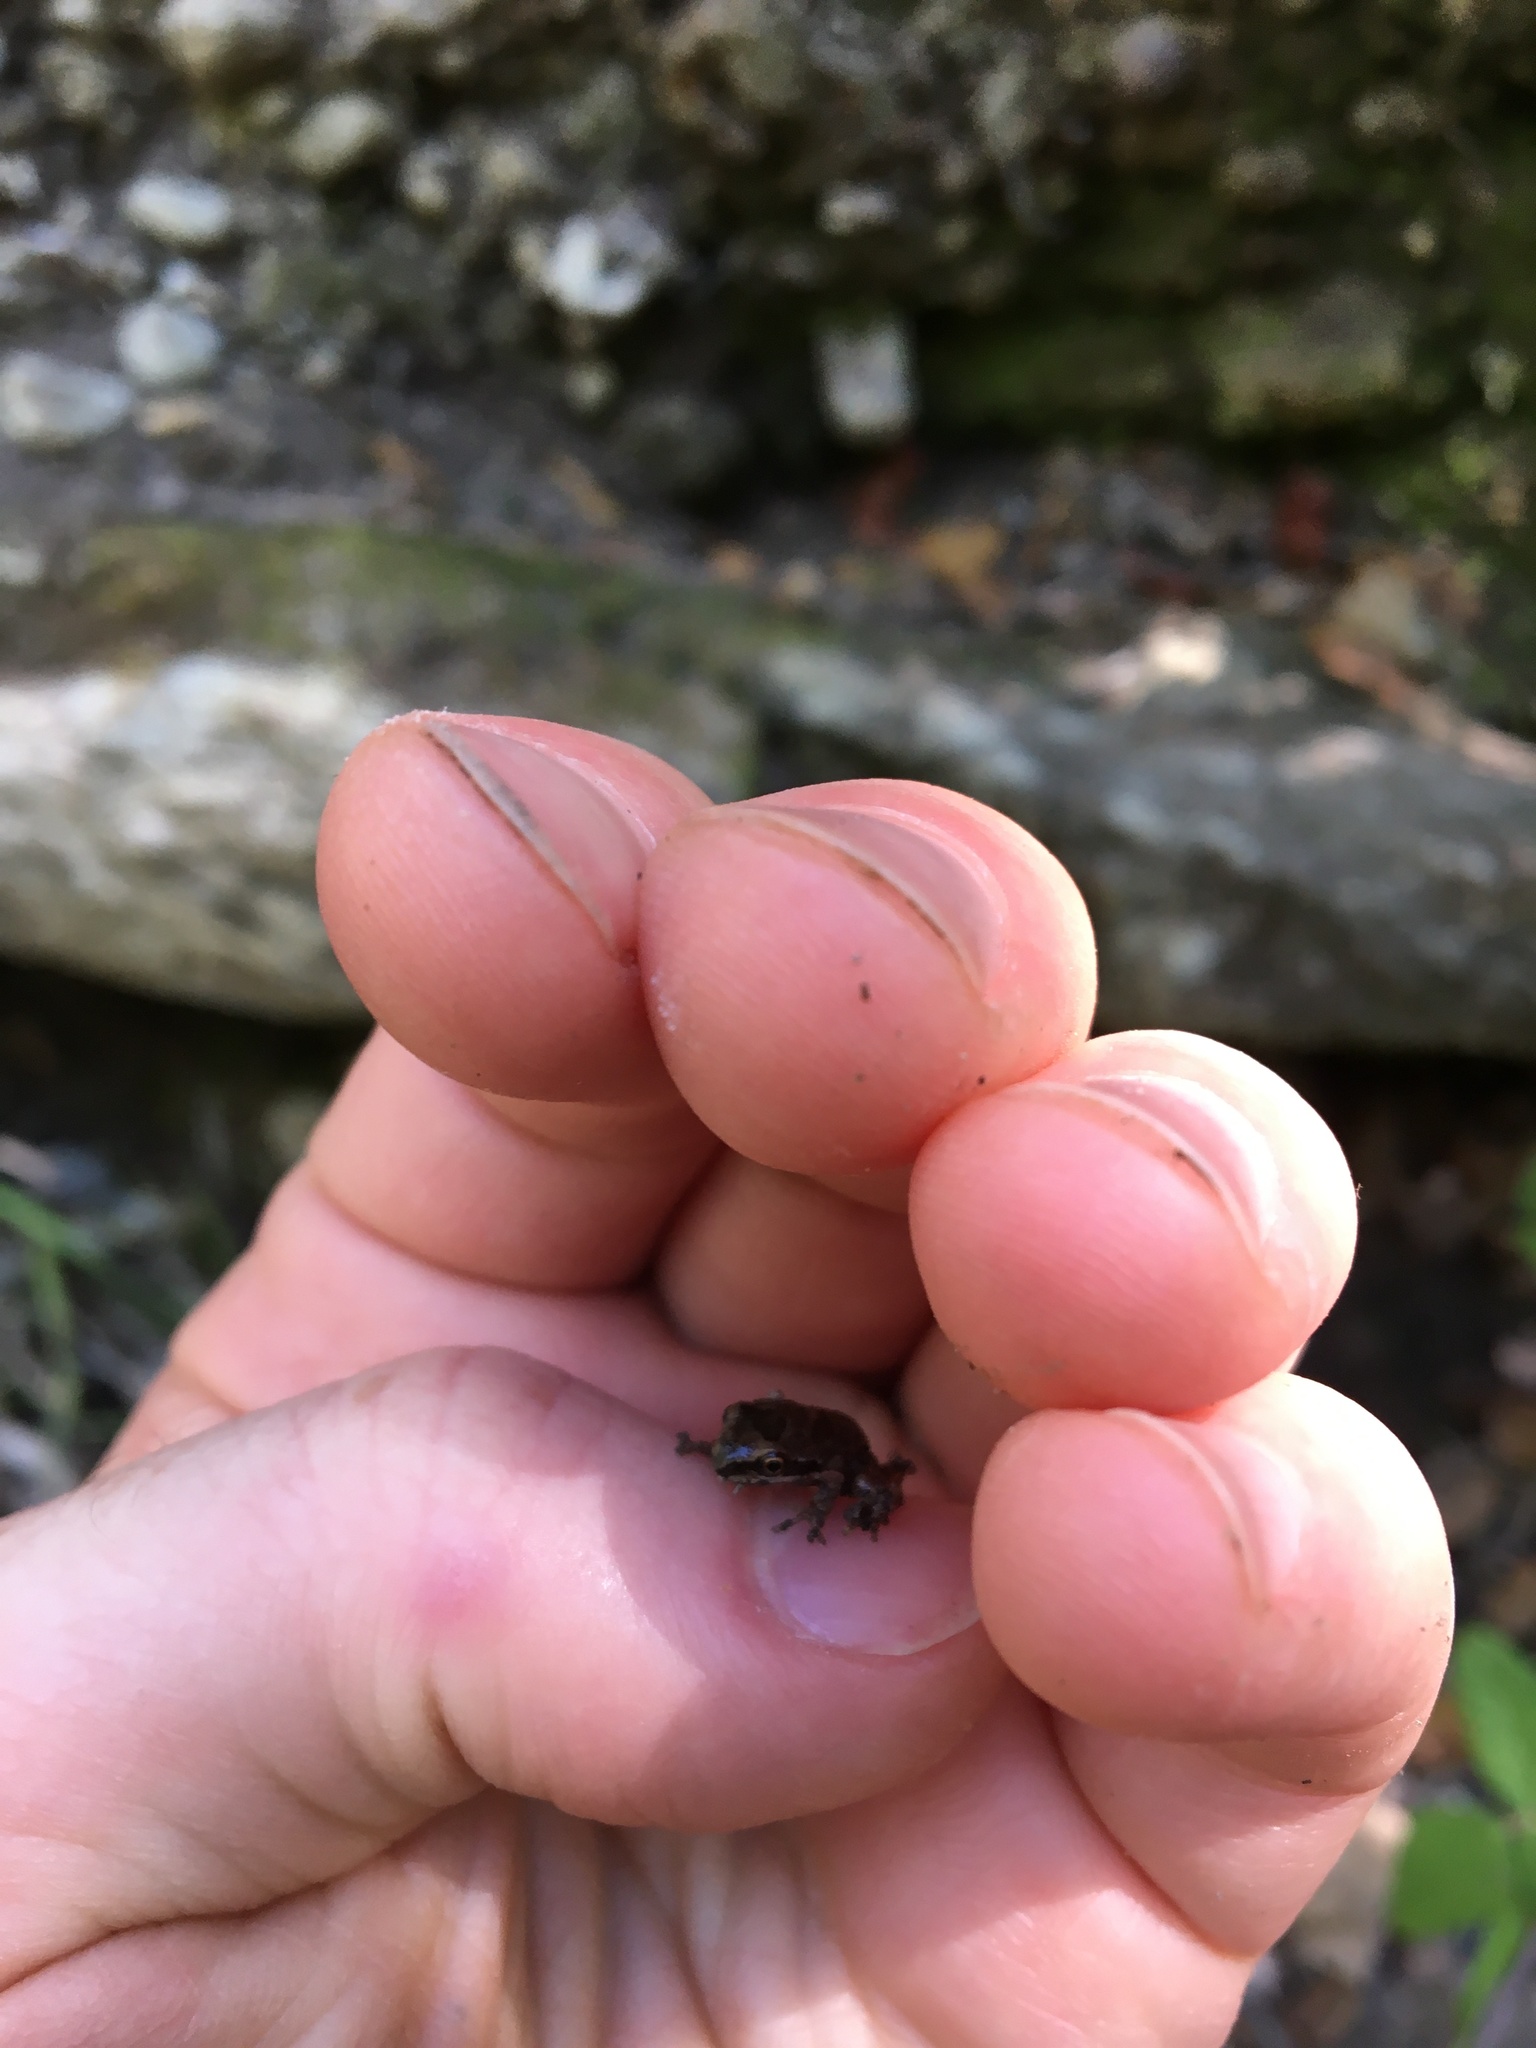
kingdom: Animalia
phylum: Chordata
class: Amphibia
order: Anura
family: Hylidae
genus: Pseudacris
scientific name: Pseudacris regilla
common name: Pacific chorus frog
